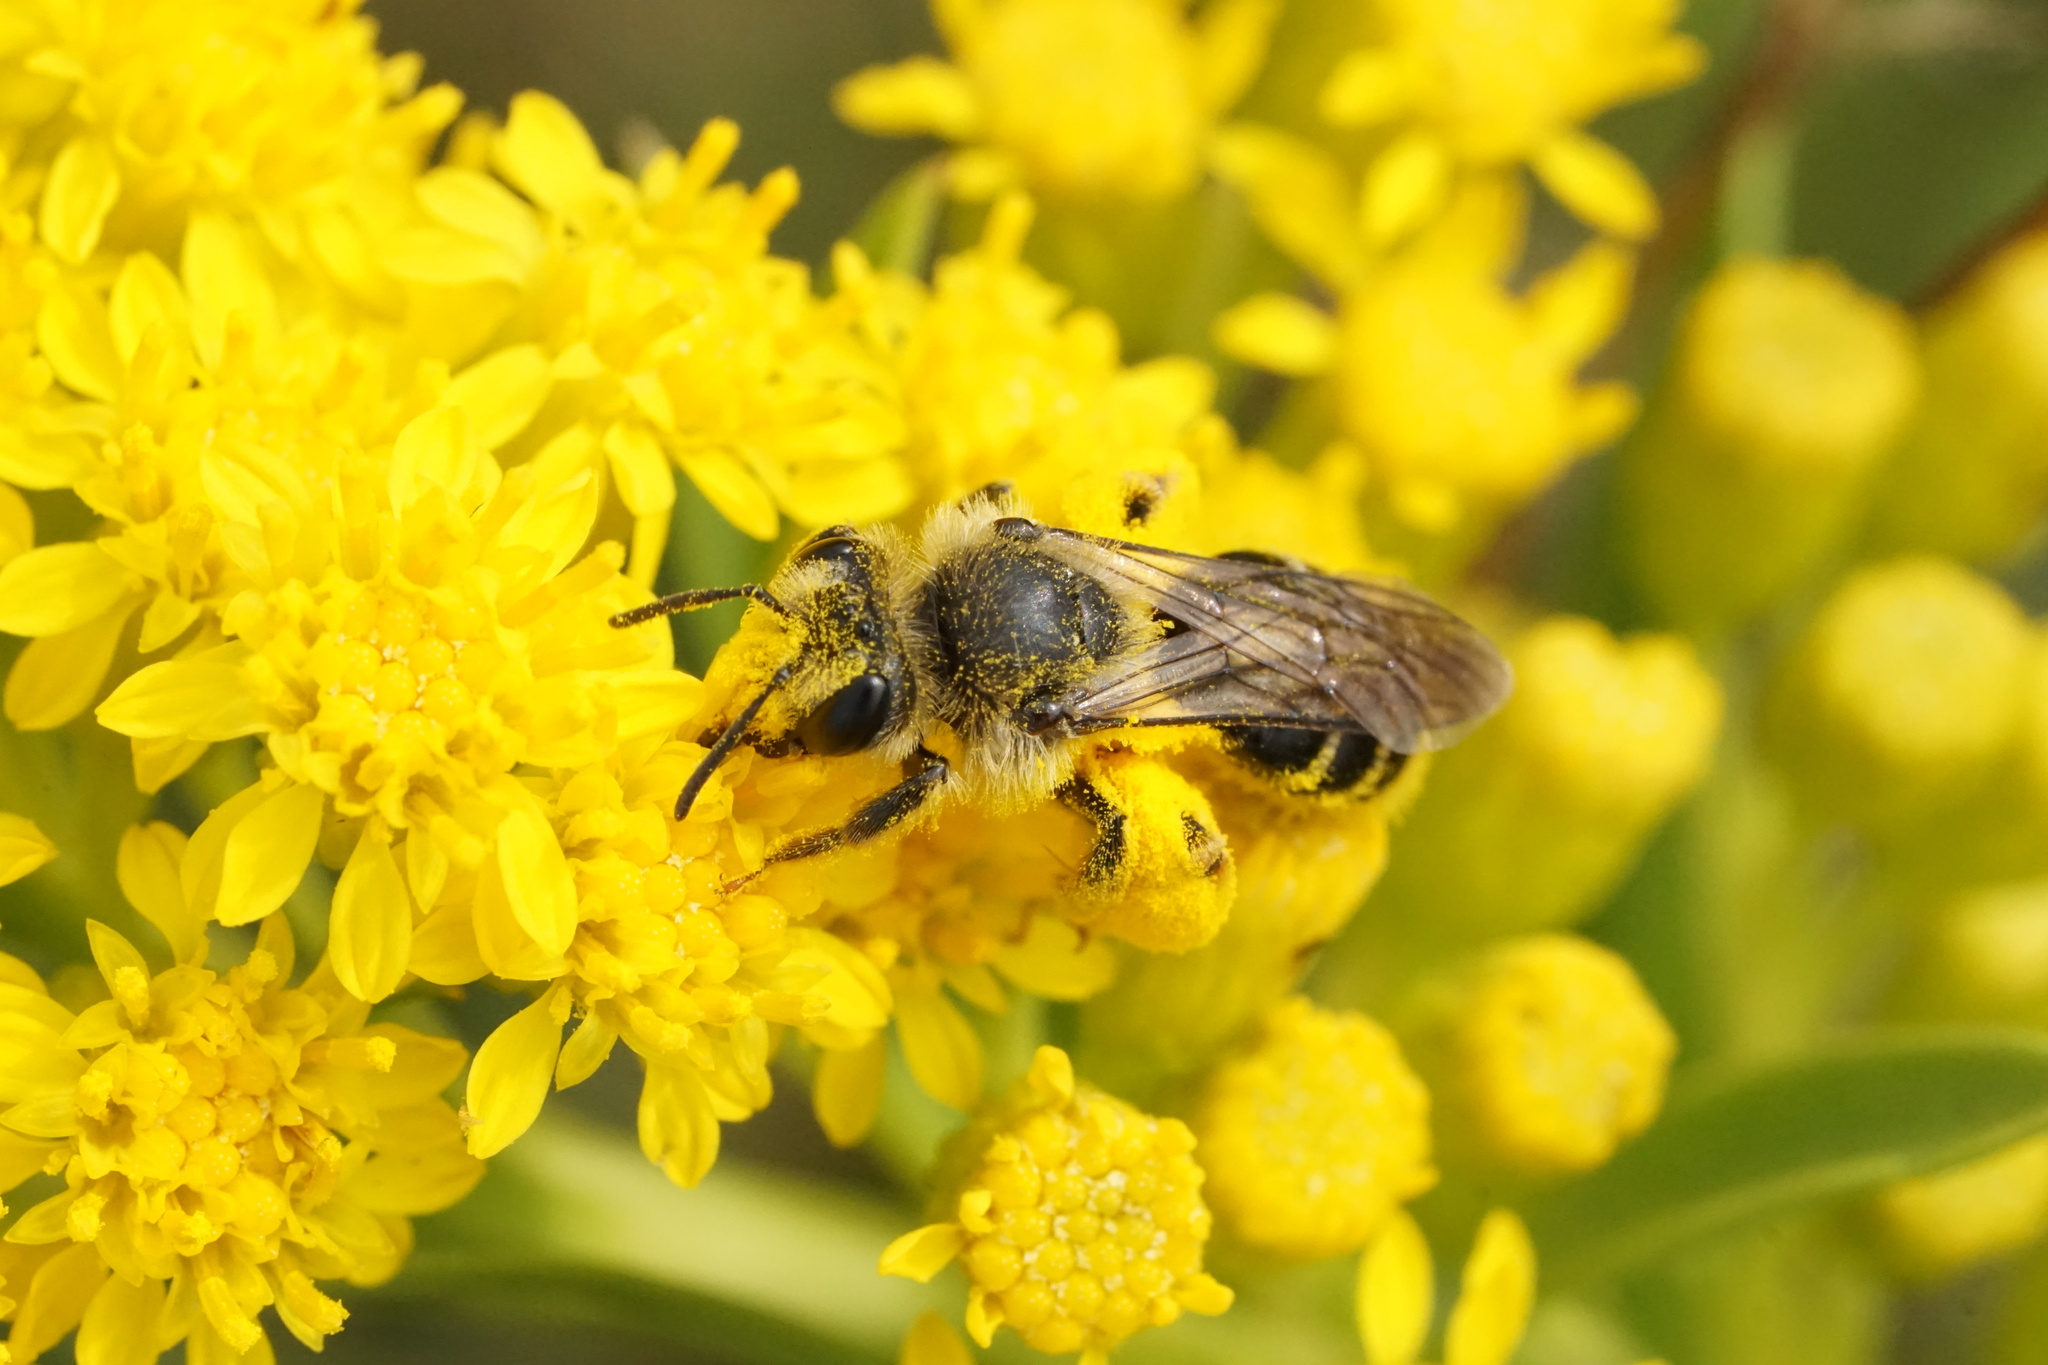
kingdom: Animalia
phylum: Arthropoda
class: Insecta
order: Hymenoptera
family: Andrenidae
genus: Andrena
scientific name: Andrena braccata
